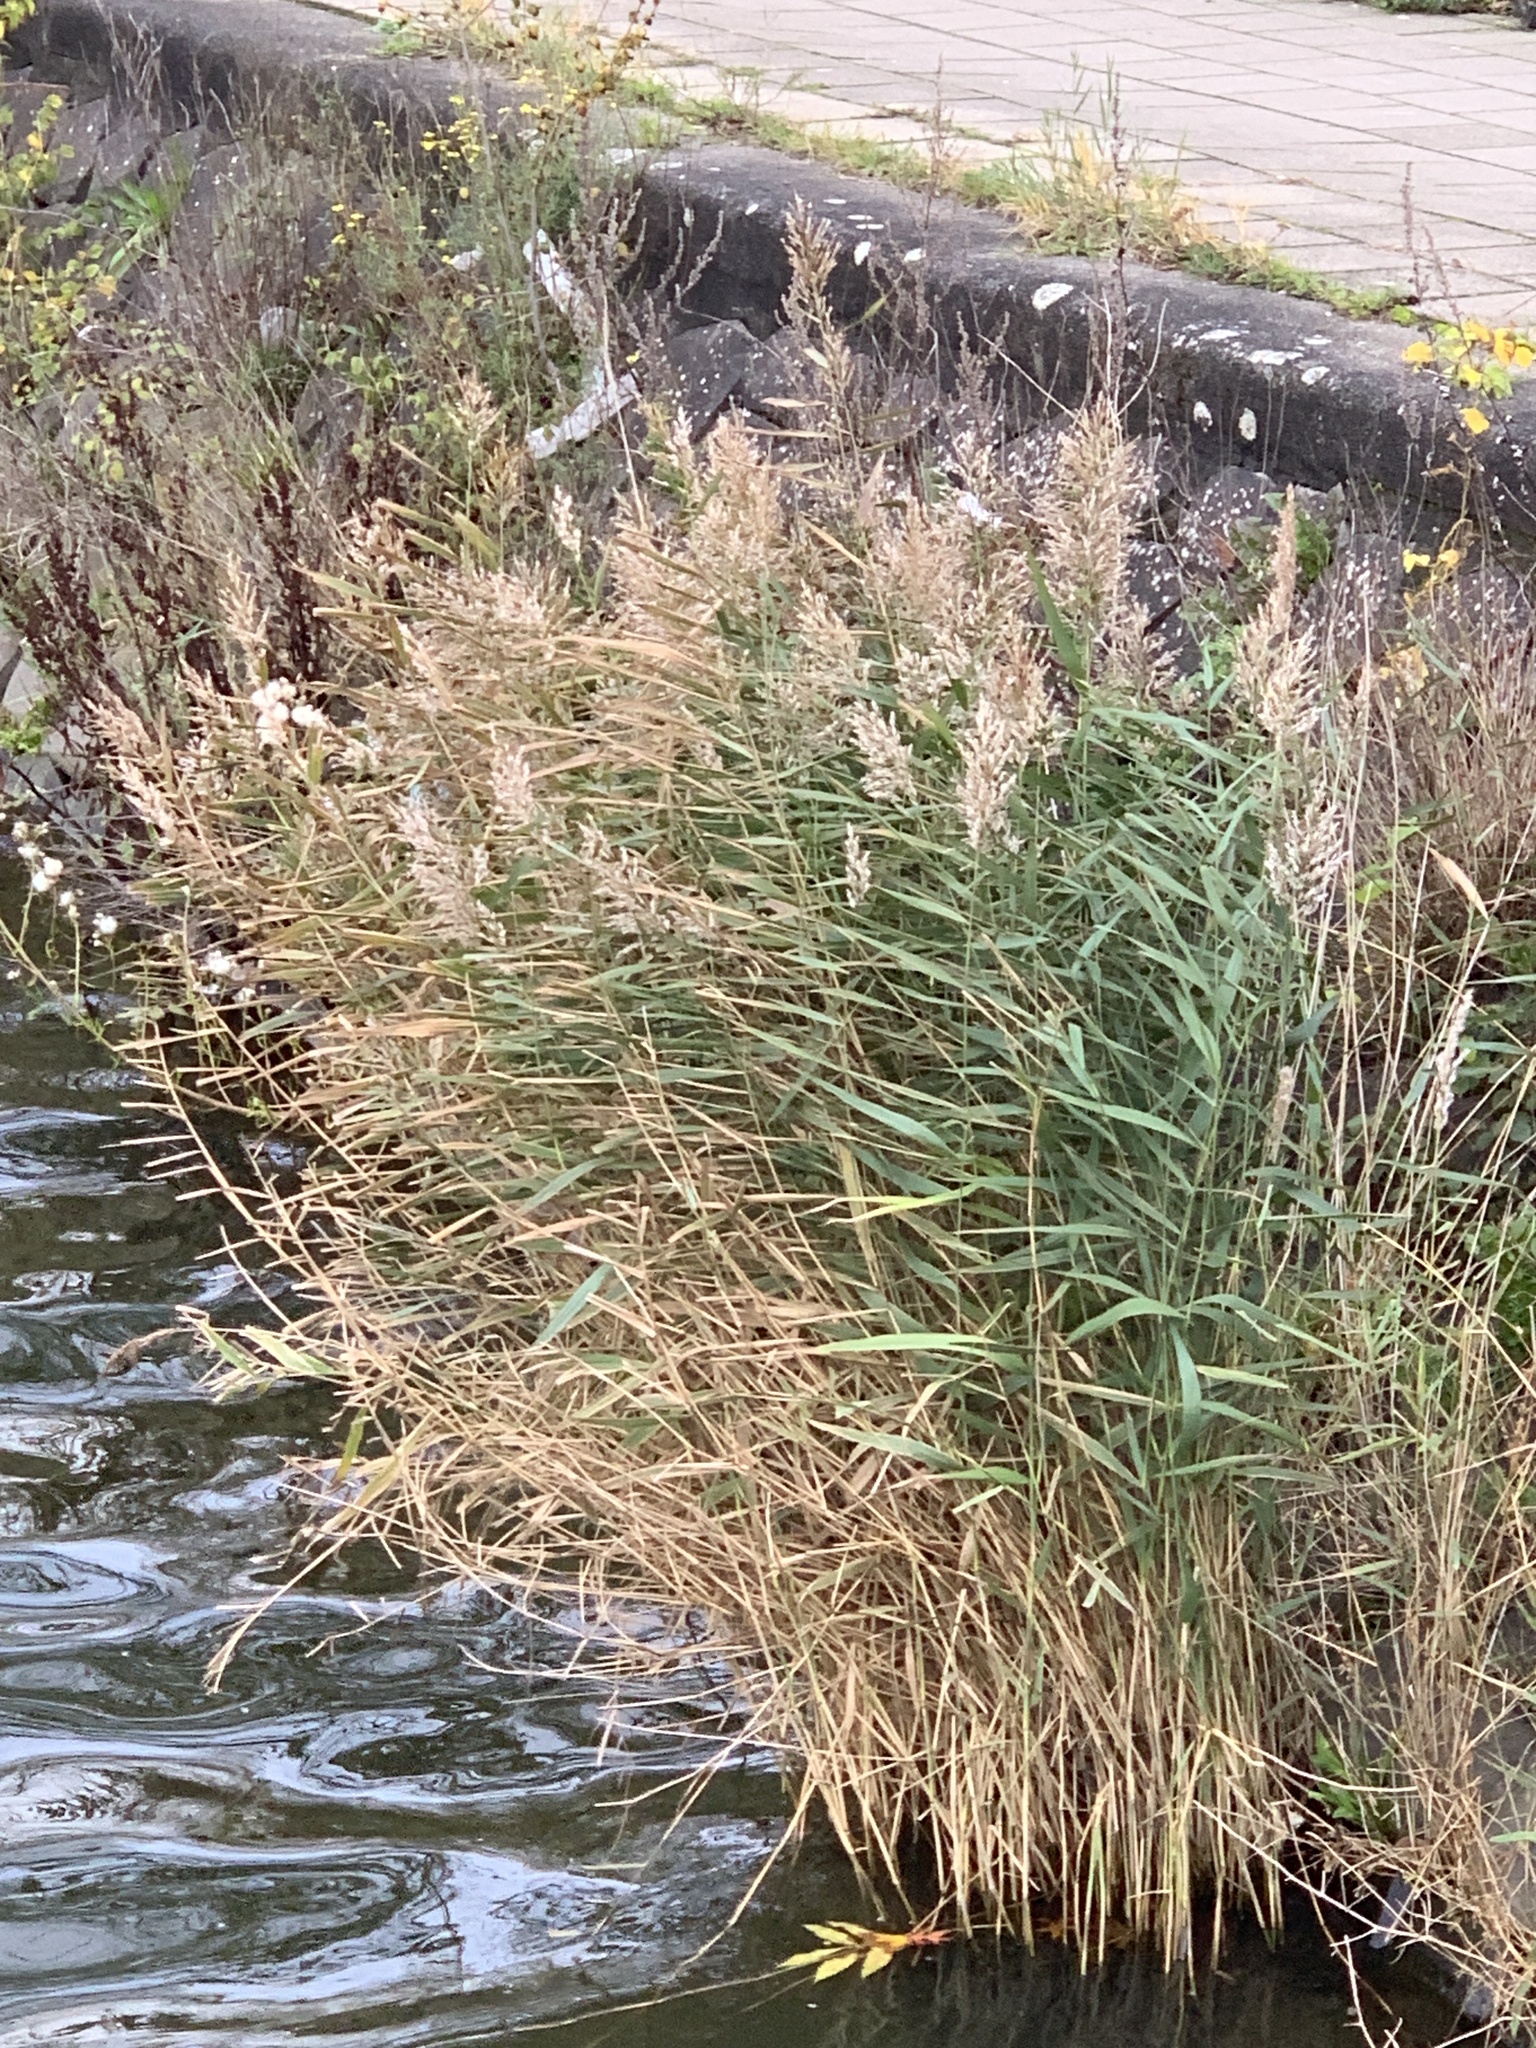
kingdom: Plantae
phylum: Tracheophyta
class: Liliopsida
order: Poales
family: Poaceae
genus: Phragmites
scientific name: Phragmites australis
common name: Common reed
